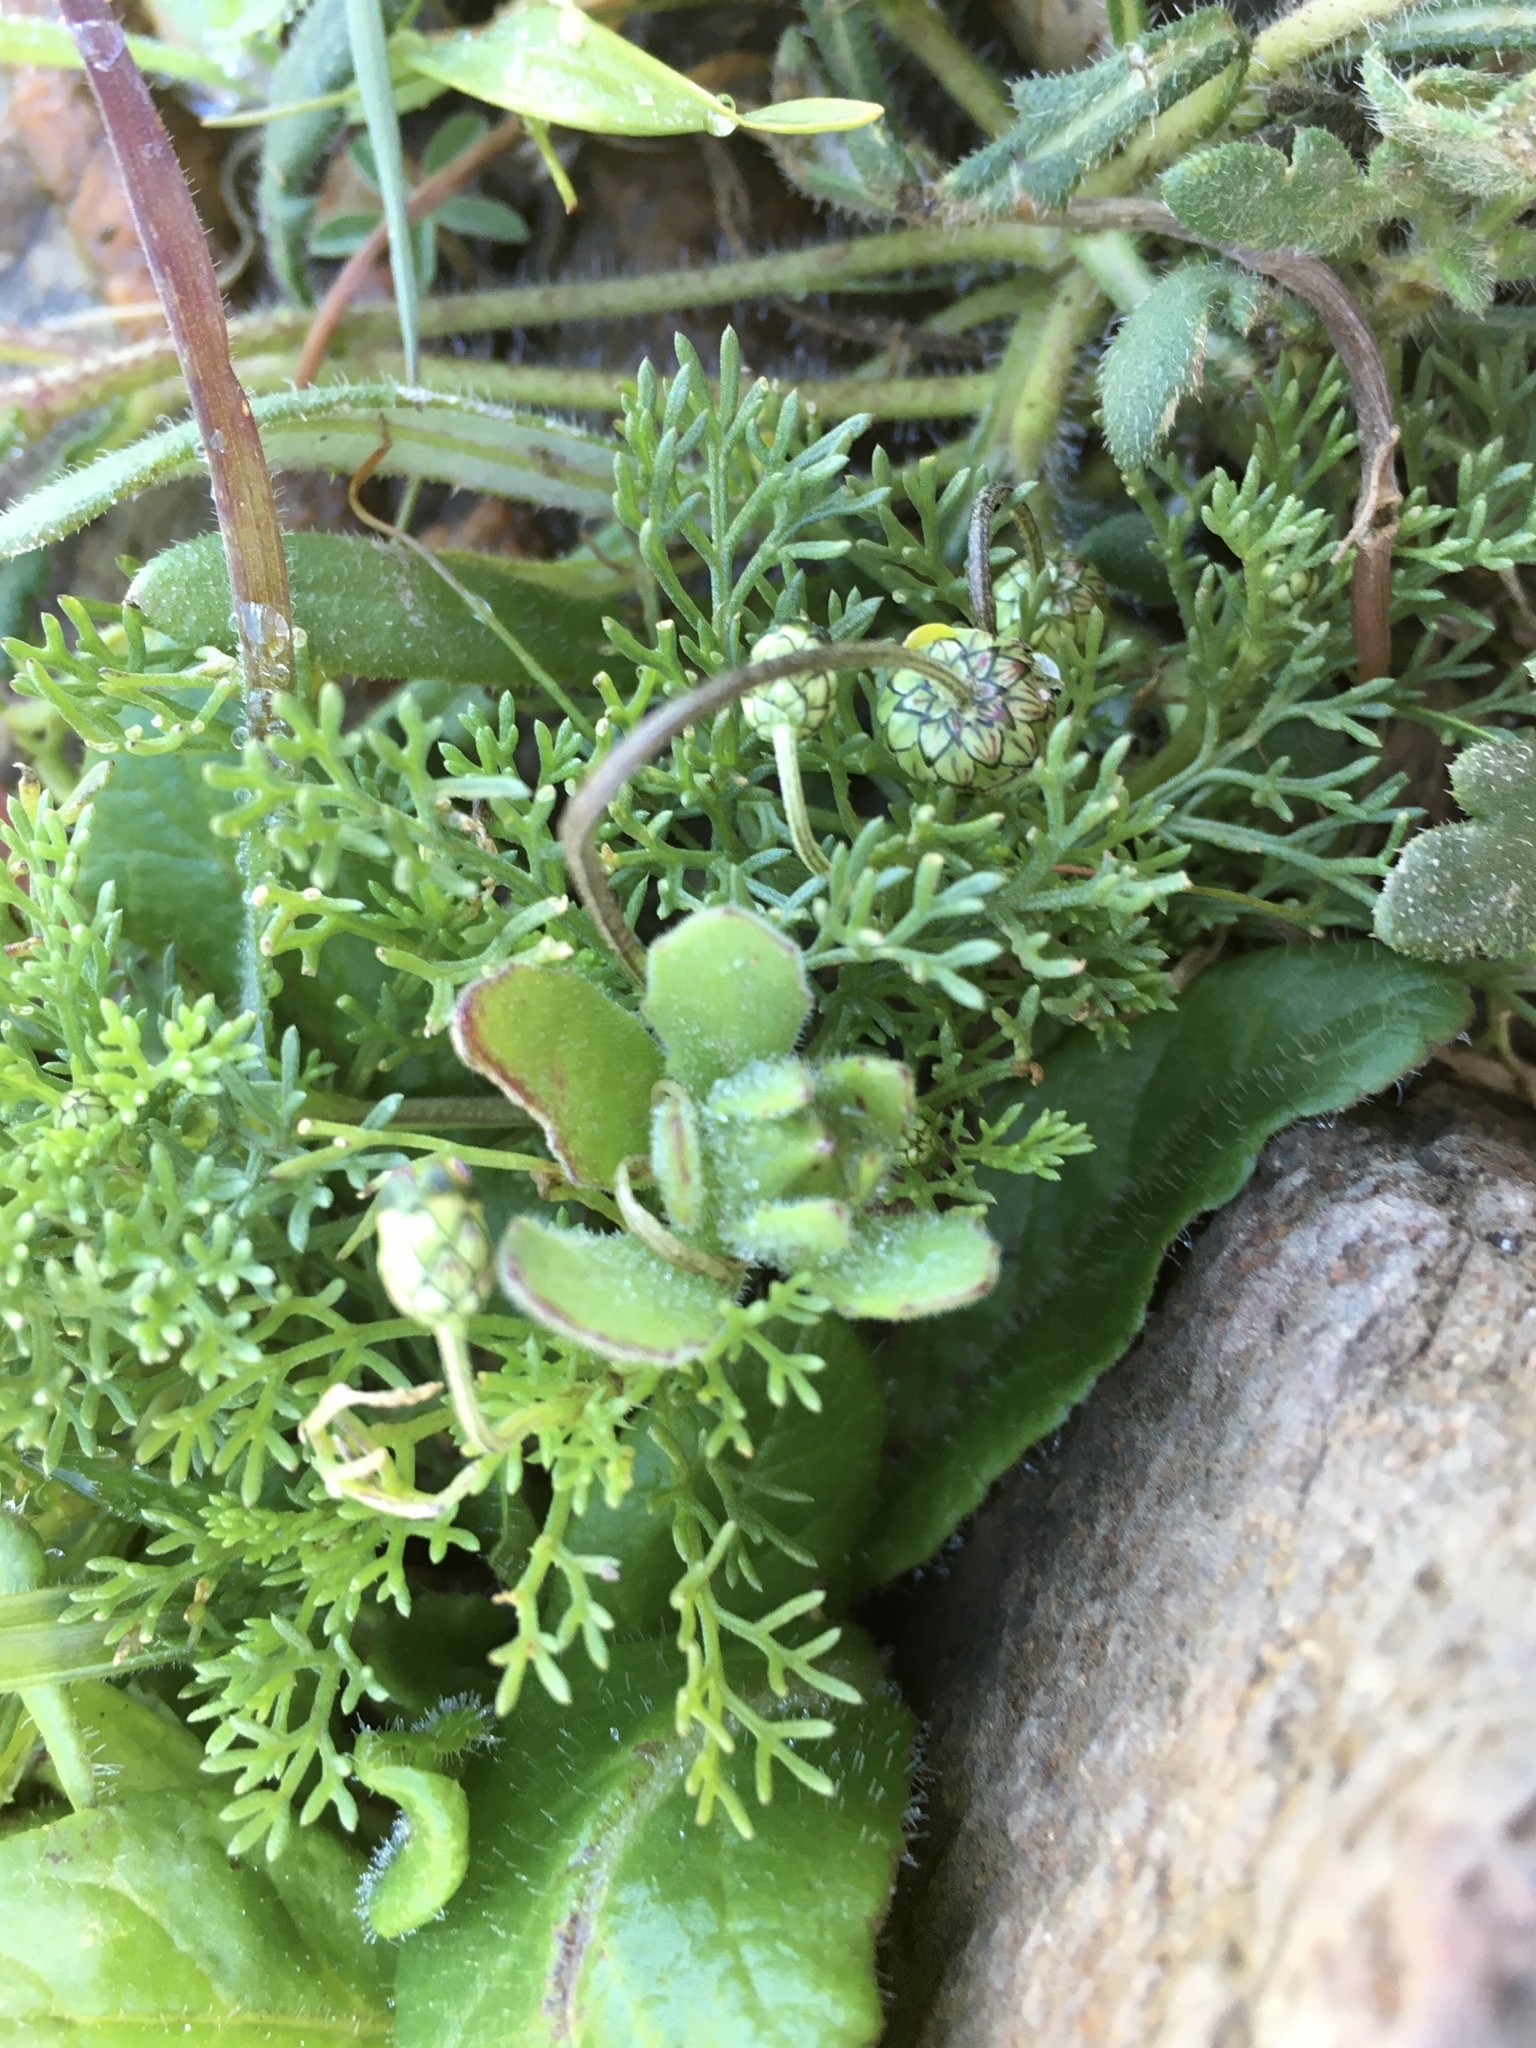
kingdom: Plantae
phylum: Tracheophyta
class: Magnoliopsida
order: Asterales
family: Asteraceae
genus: Ursinia
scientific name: Ursinia nana
